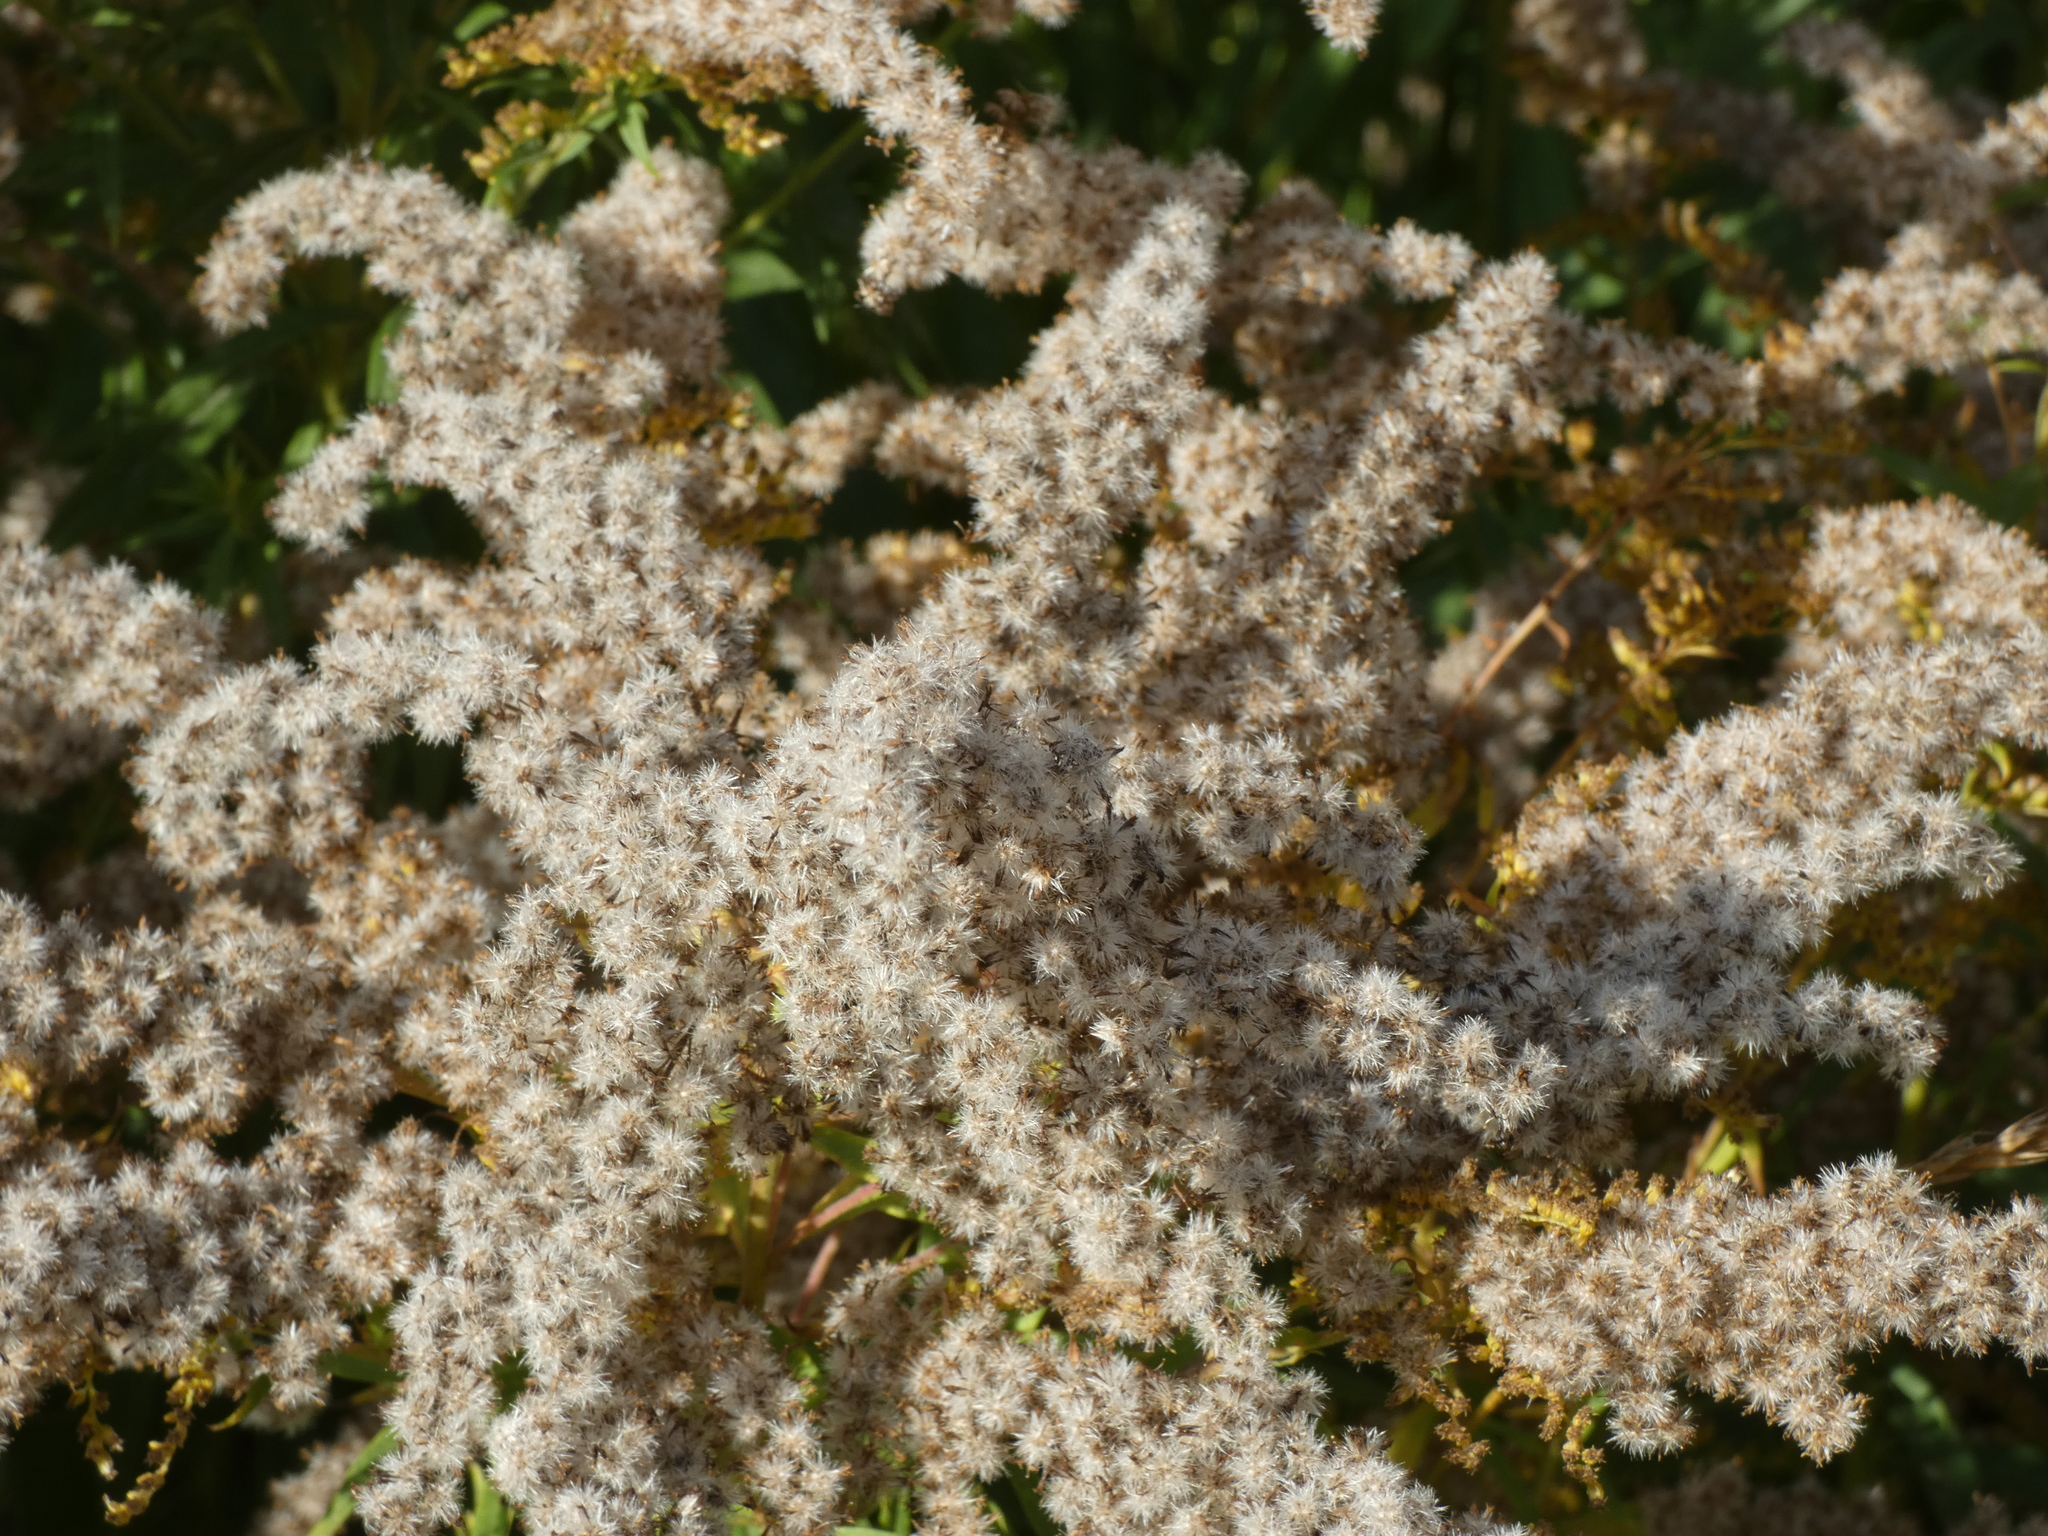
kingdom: Plantae
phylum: Tracheophyta
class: Magnoliopsida
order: Asterales
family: Asteraceae
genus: Solidago
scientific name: Solidago canadensis
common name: Canada goldenrod
